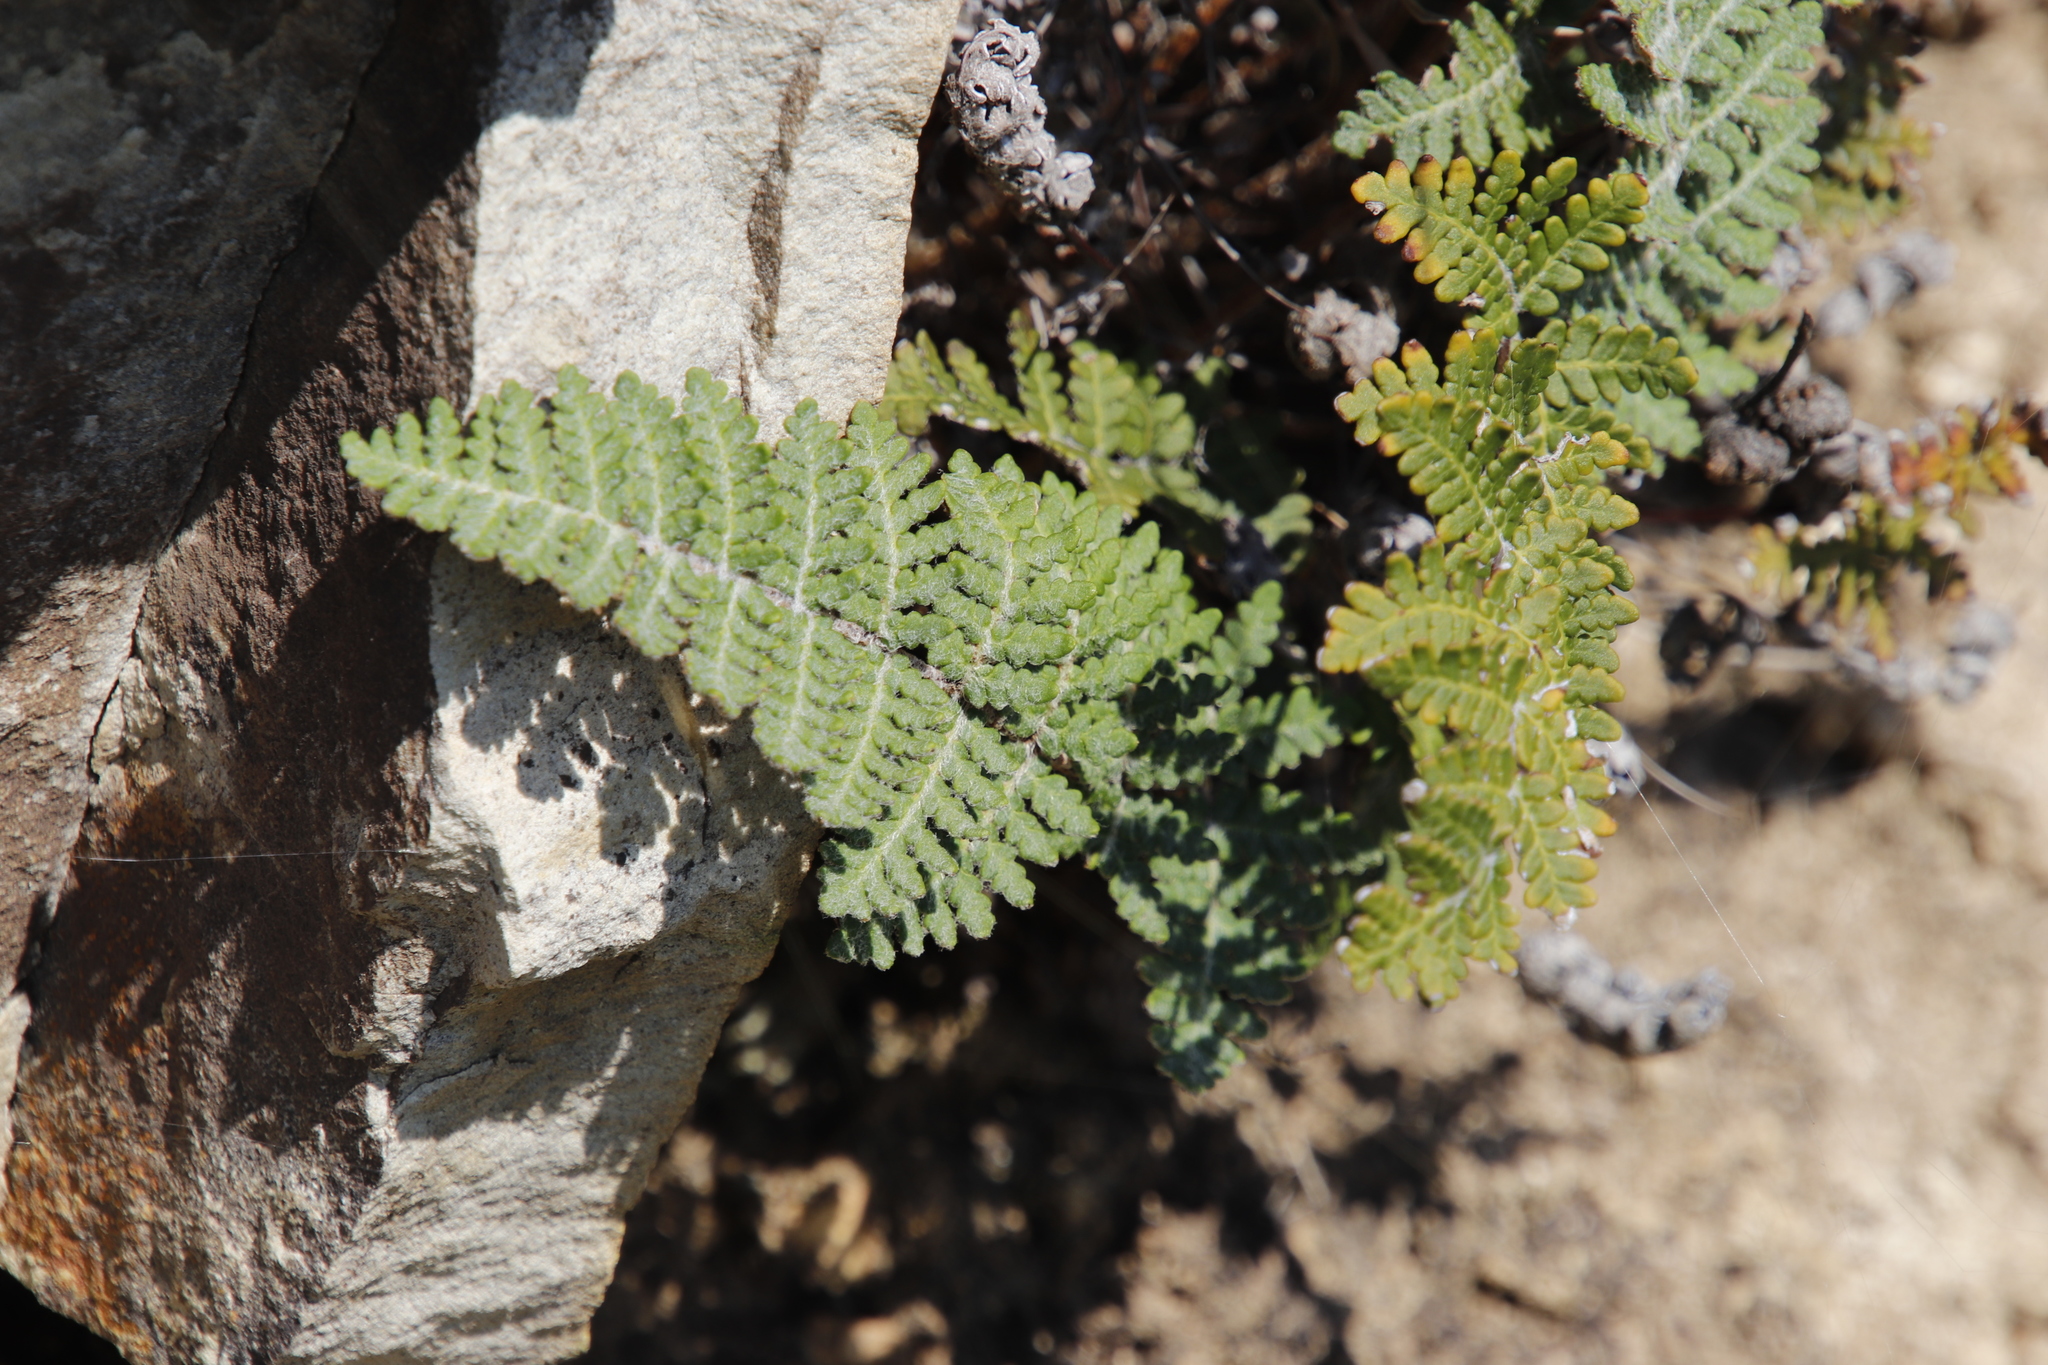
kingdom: Plantae
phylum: Tracheophyta
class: Polypodiopsida
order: Polypodiales
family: Pteridaceae
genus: Cheilanthes
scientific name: Cheilanthes eckloniana
